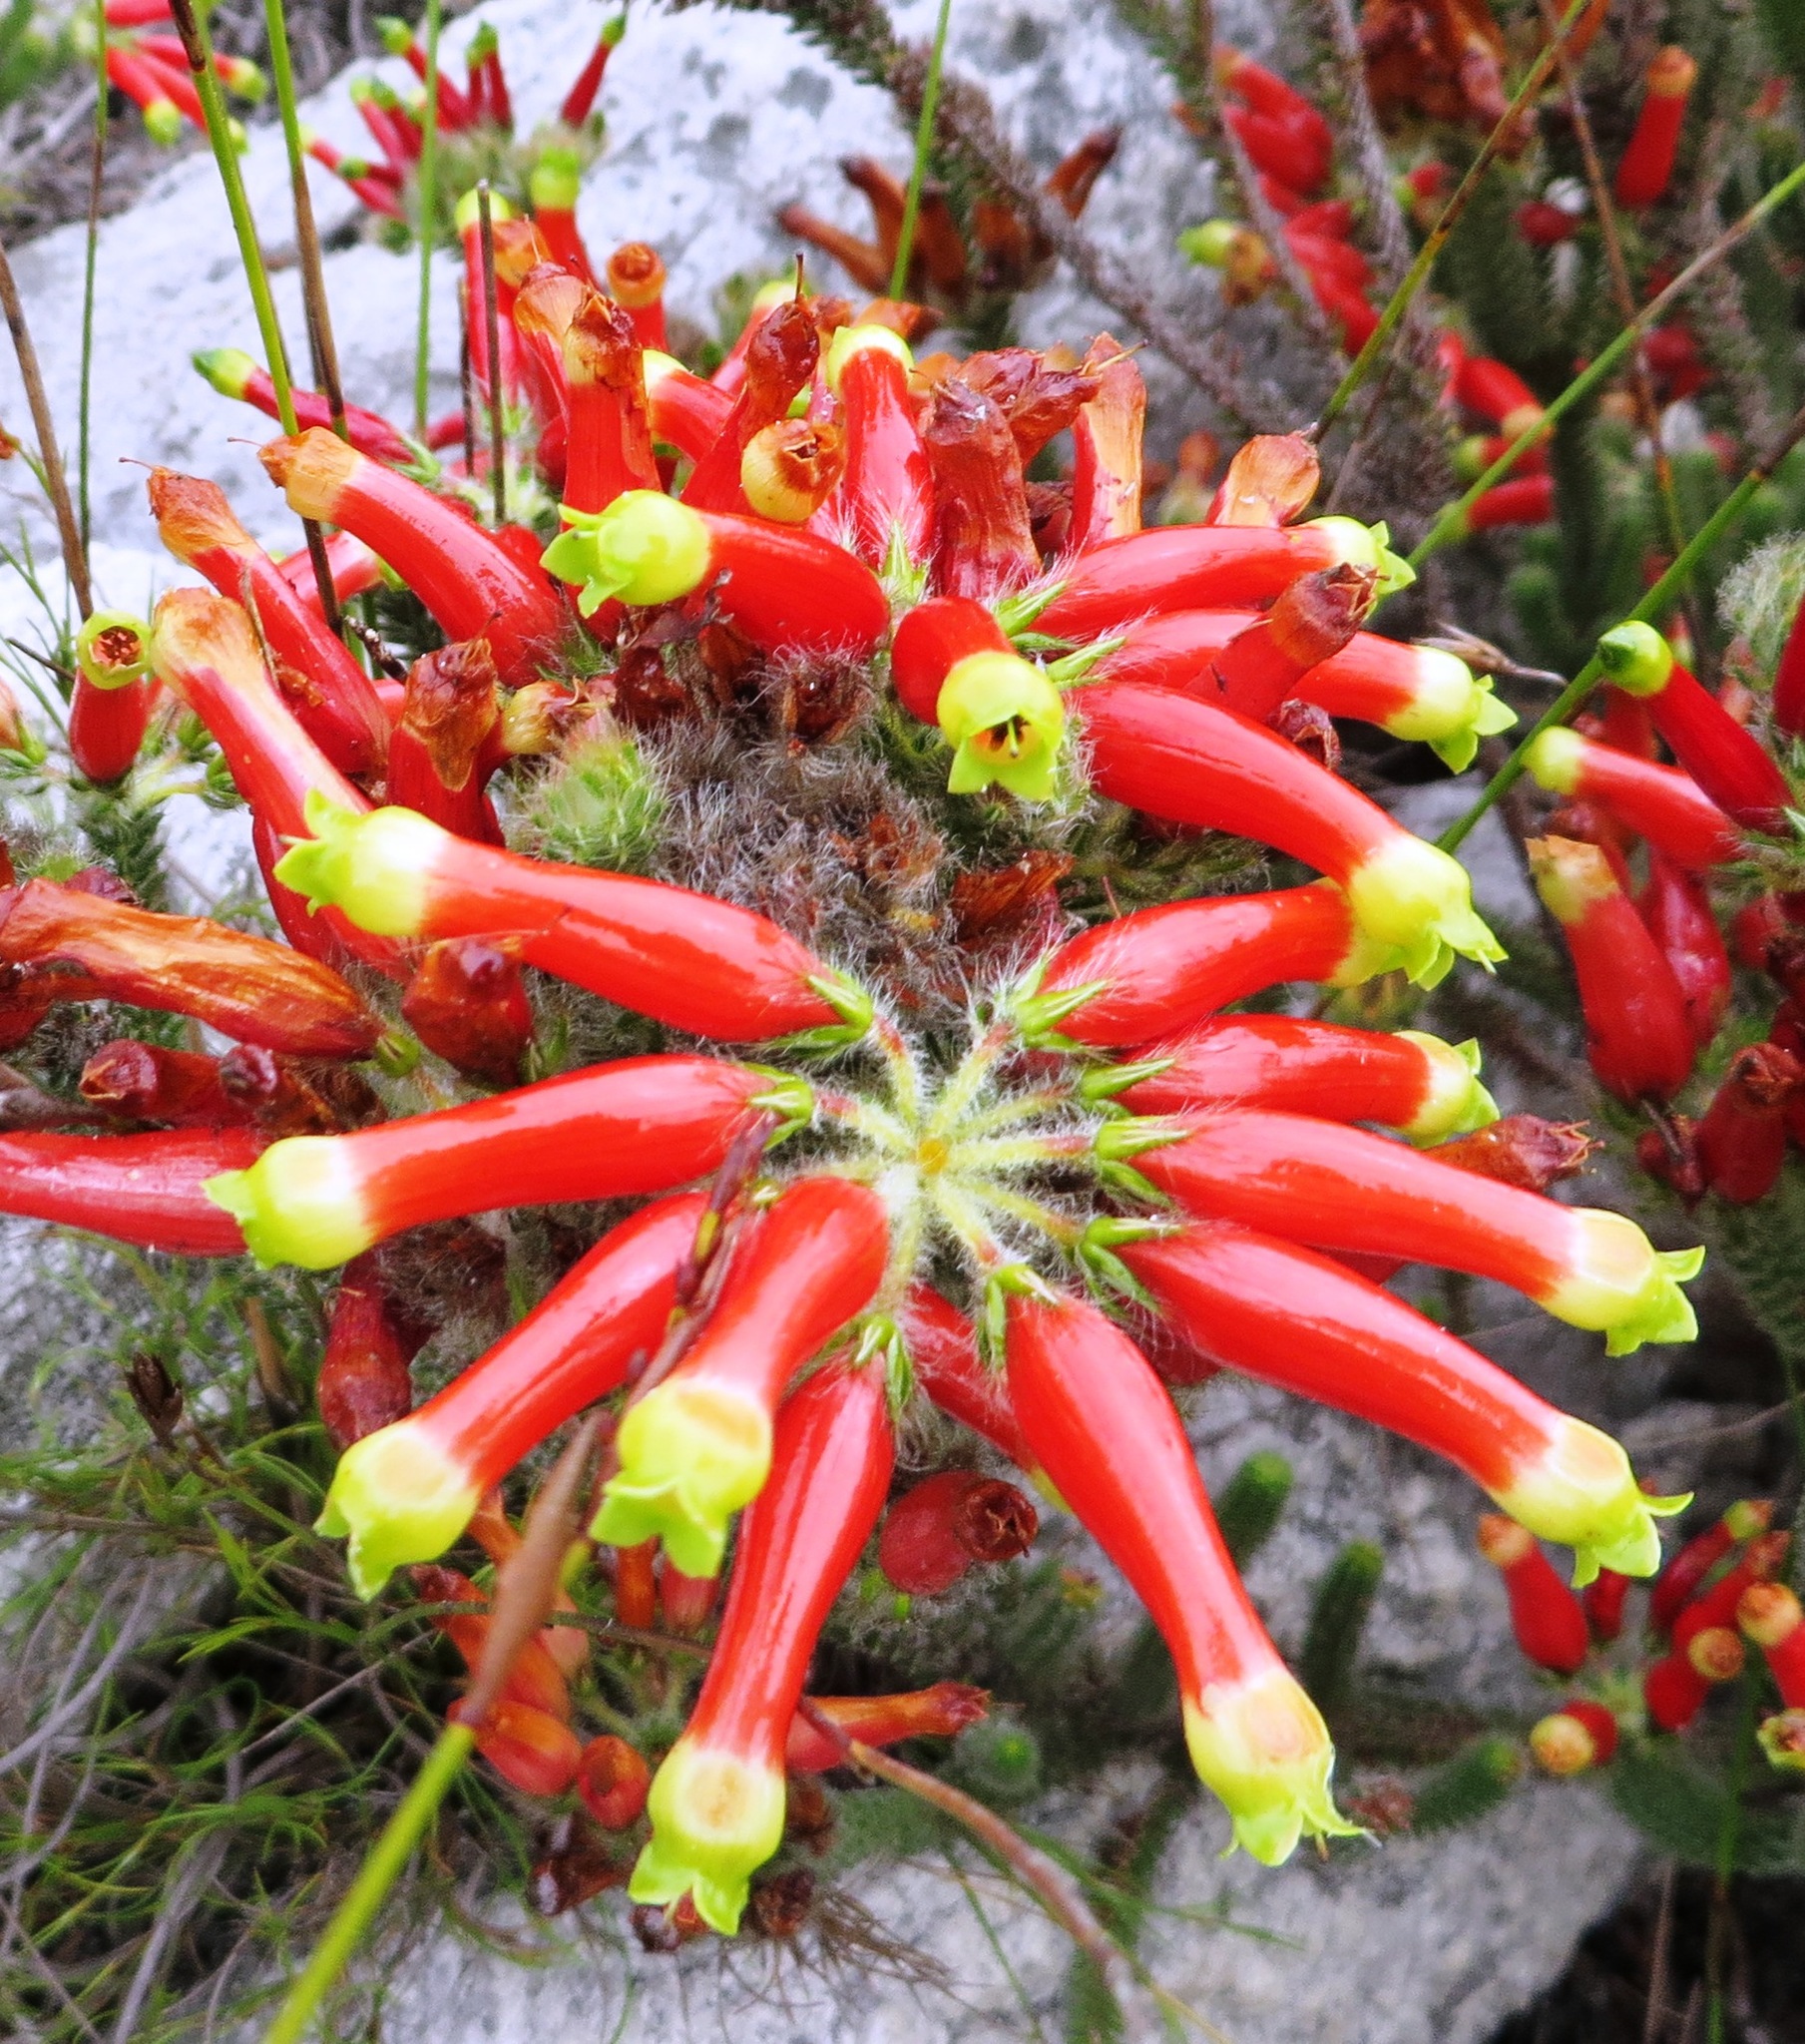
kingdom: Plantae
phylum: Tracheophyta
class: Magnoliopsida
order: Ericales
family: Ericaceae
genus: Erica
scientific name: Erica massonii
